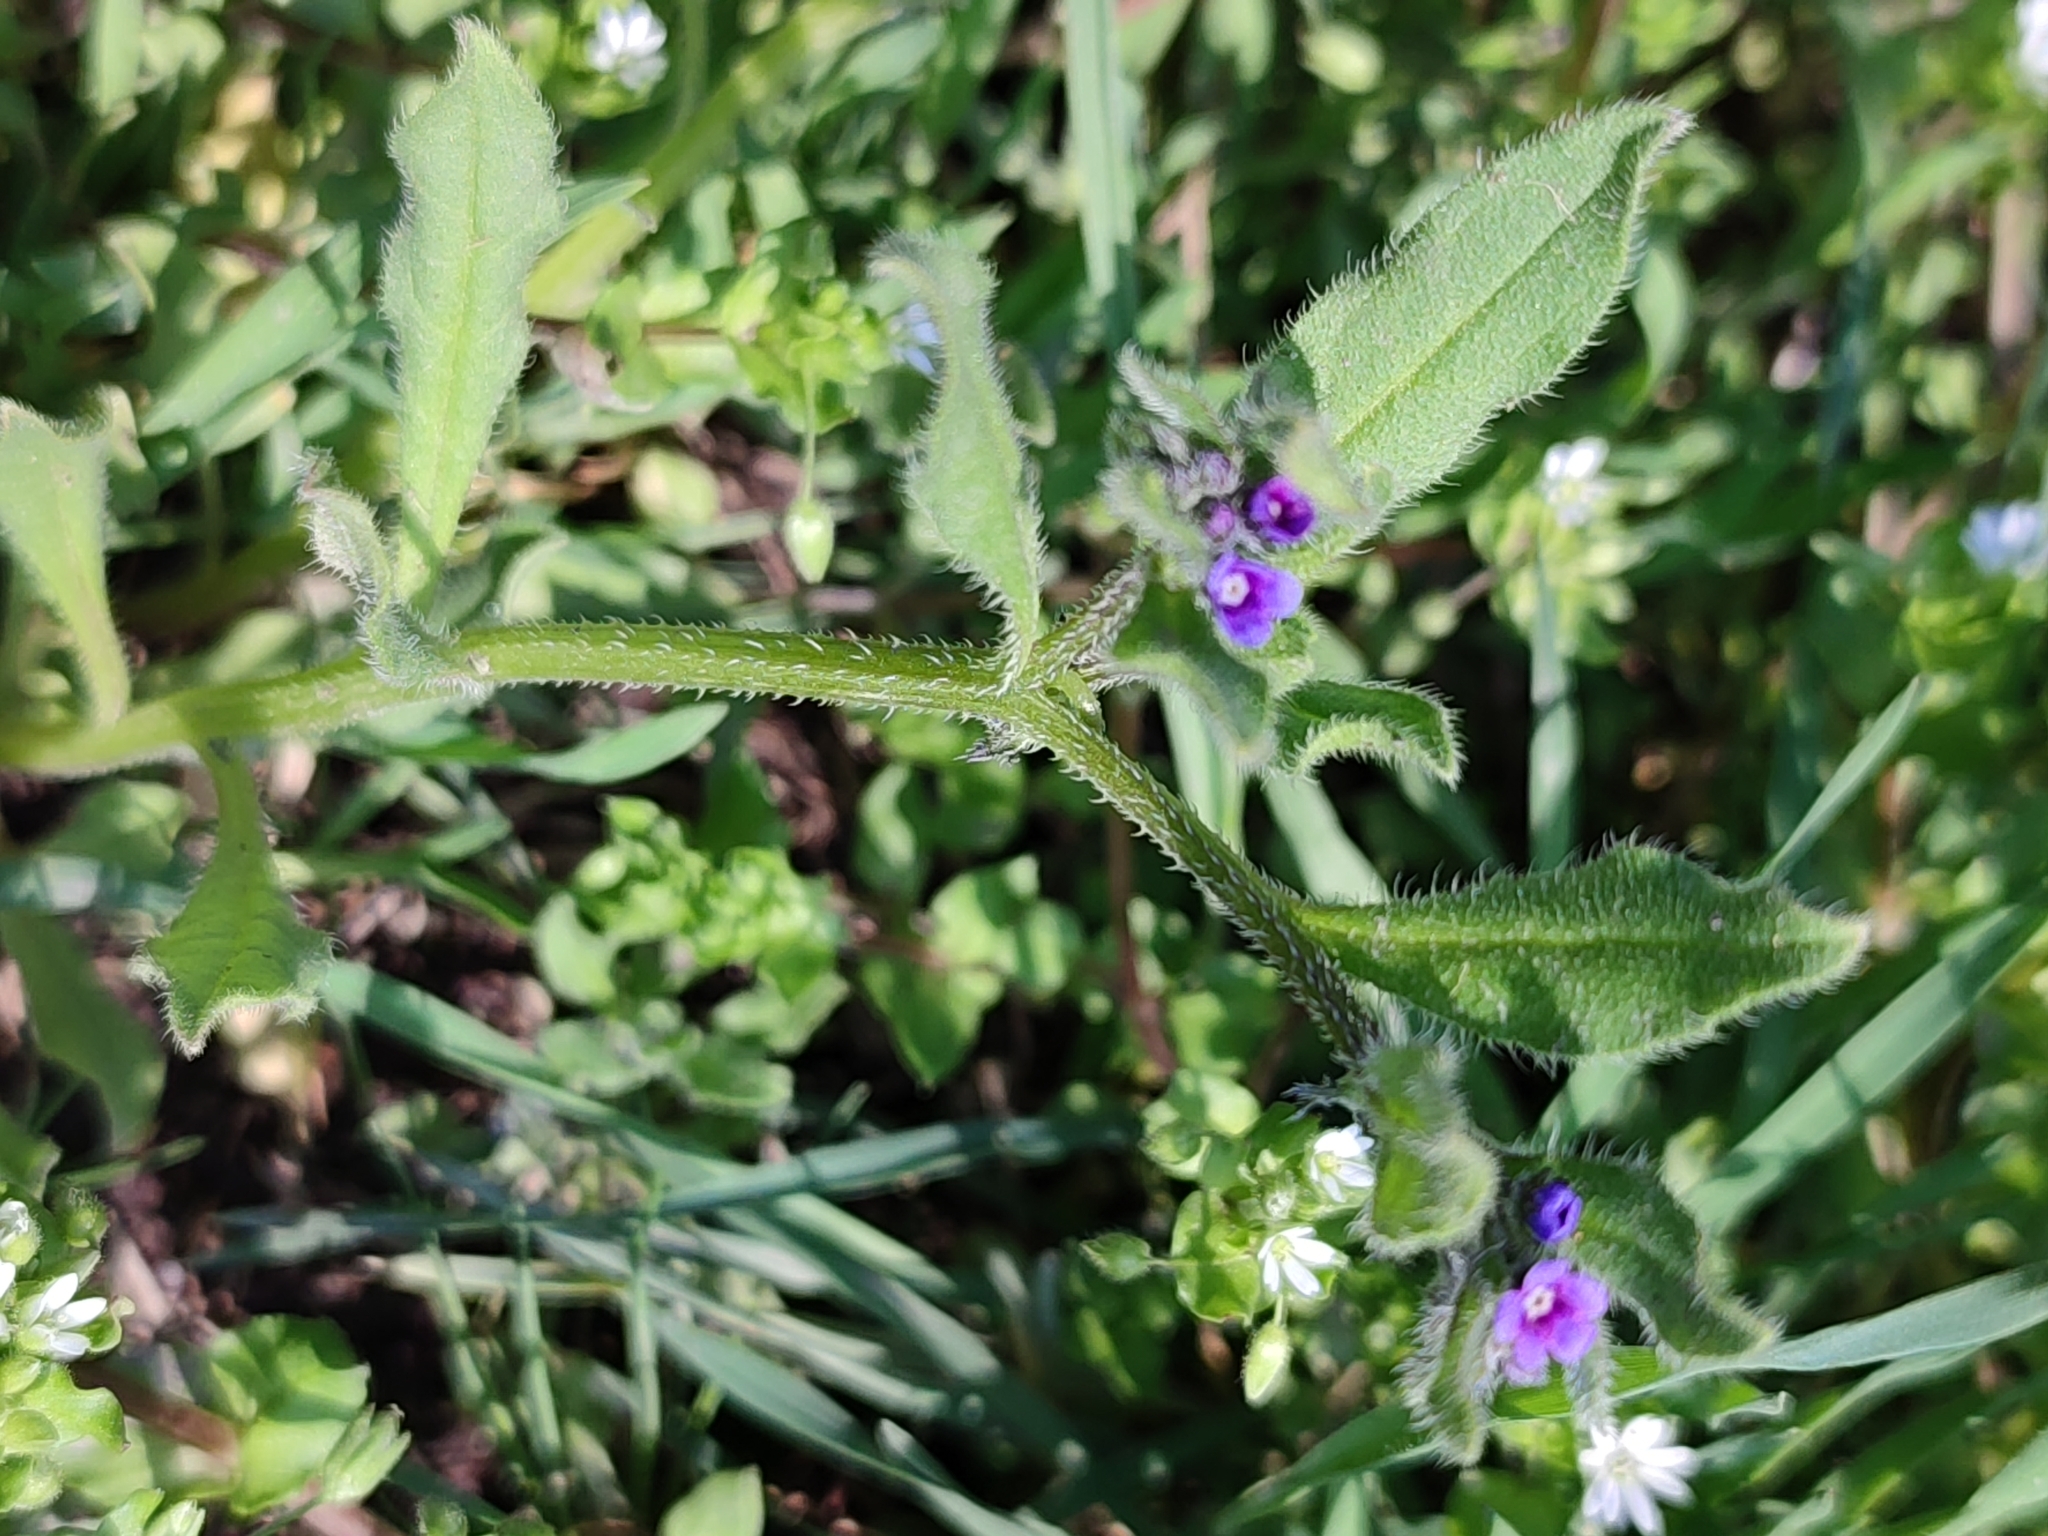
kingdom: Plantae
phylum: Tracheophyta
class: Magnoliopsida
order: Boraginales
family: Boraginaceae
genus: Asperugo
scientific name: Asperugo procumbens
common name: Madwort
